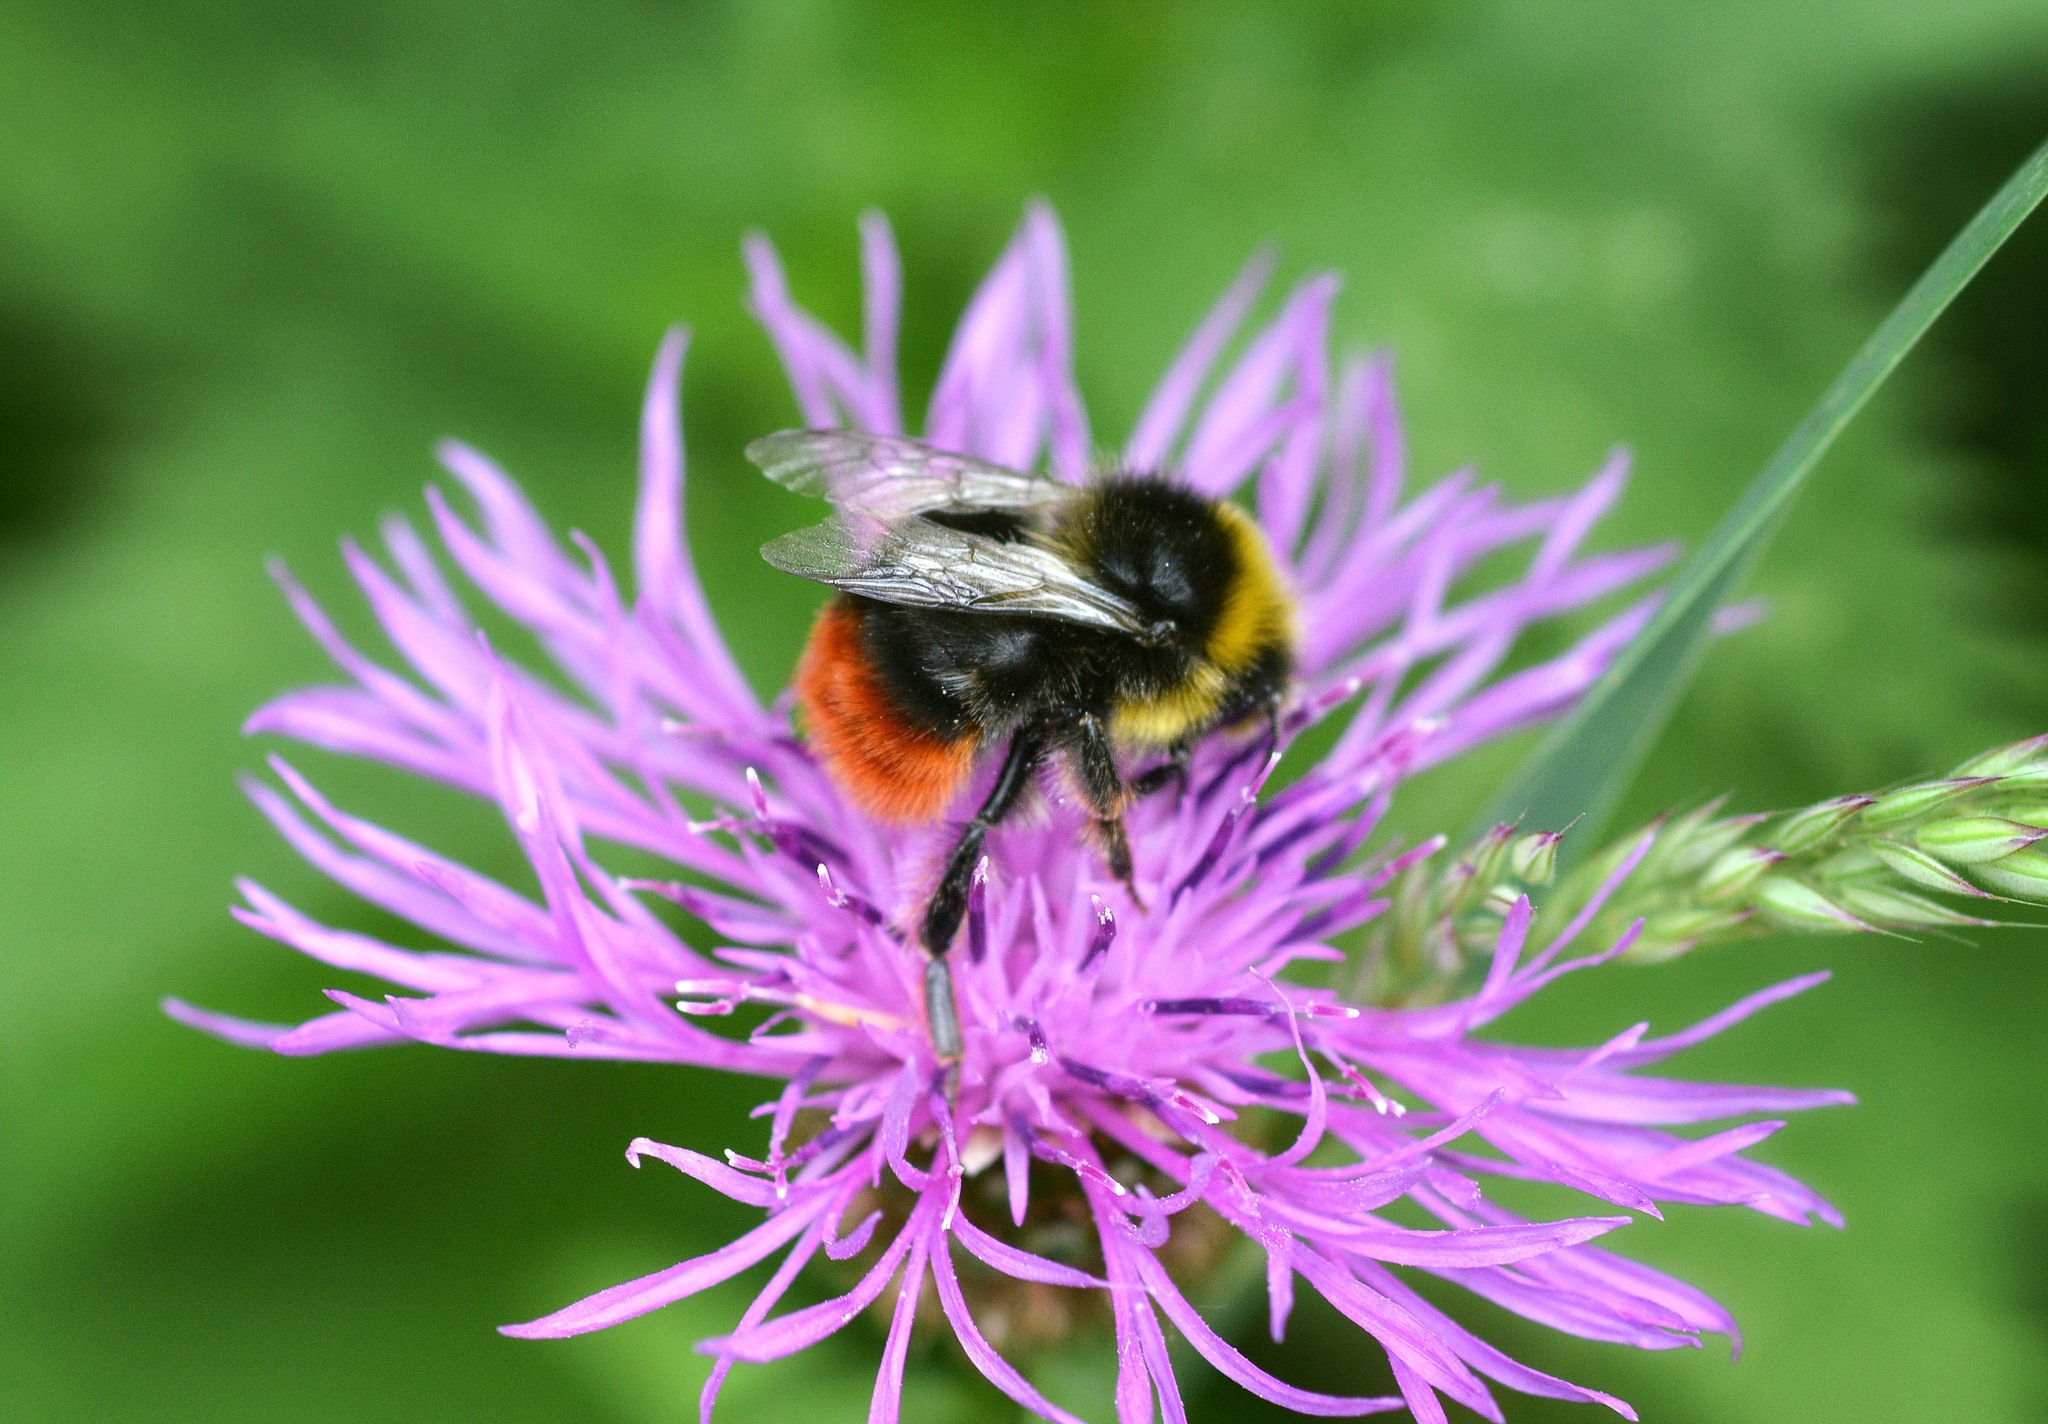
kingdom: Animalia
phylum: Arthropoda
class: Insecta
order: Hymenoptera
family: Apidae
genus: Bombus
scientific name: Bombus lapidarius
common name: Large red-tailed humble-bee
